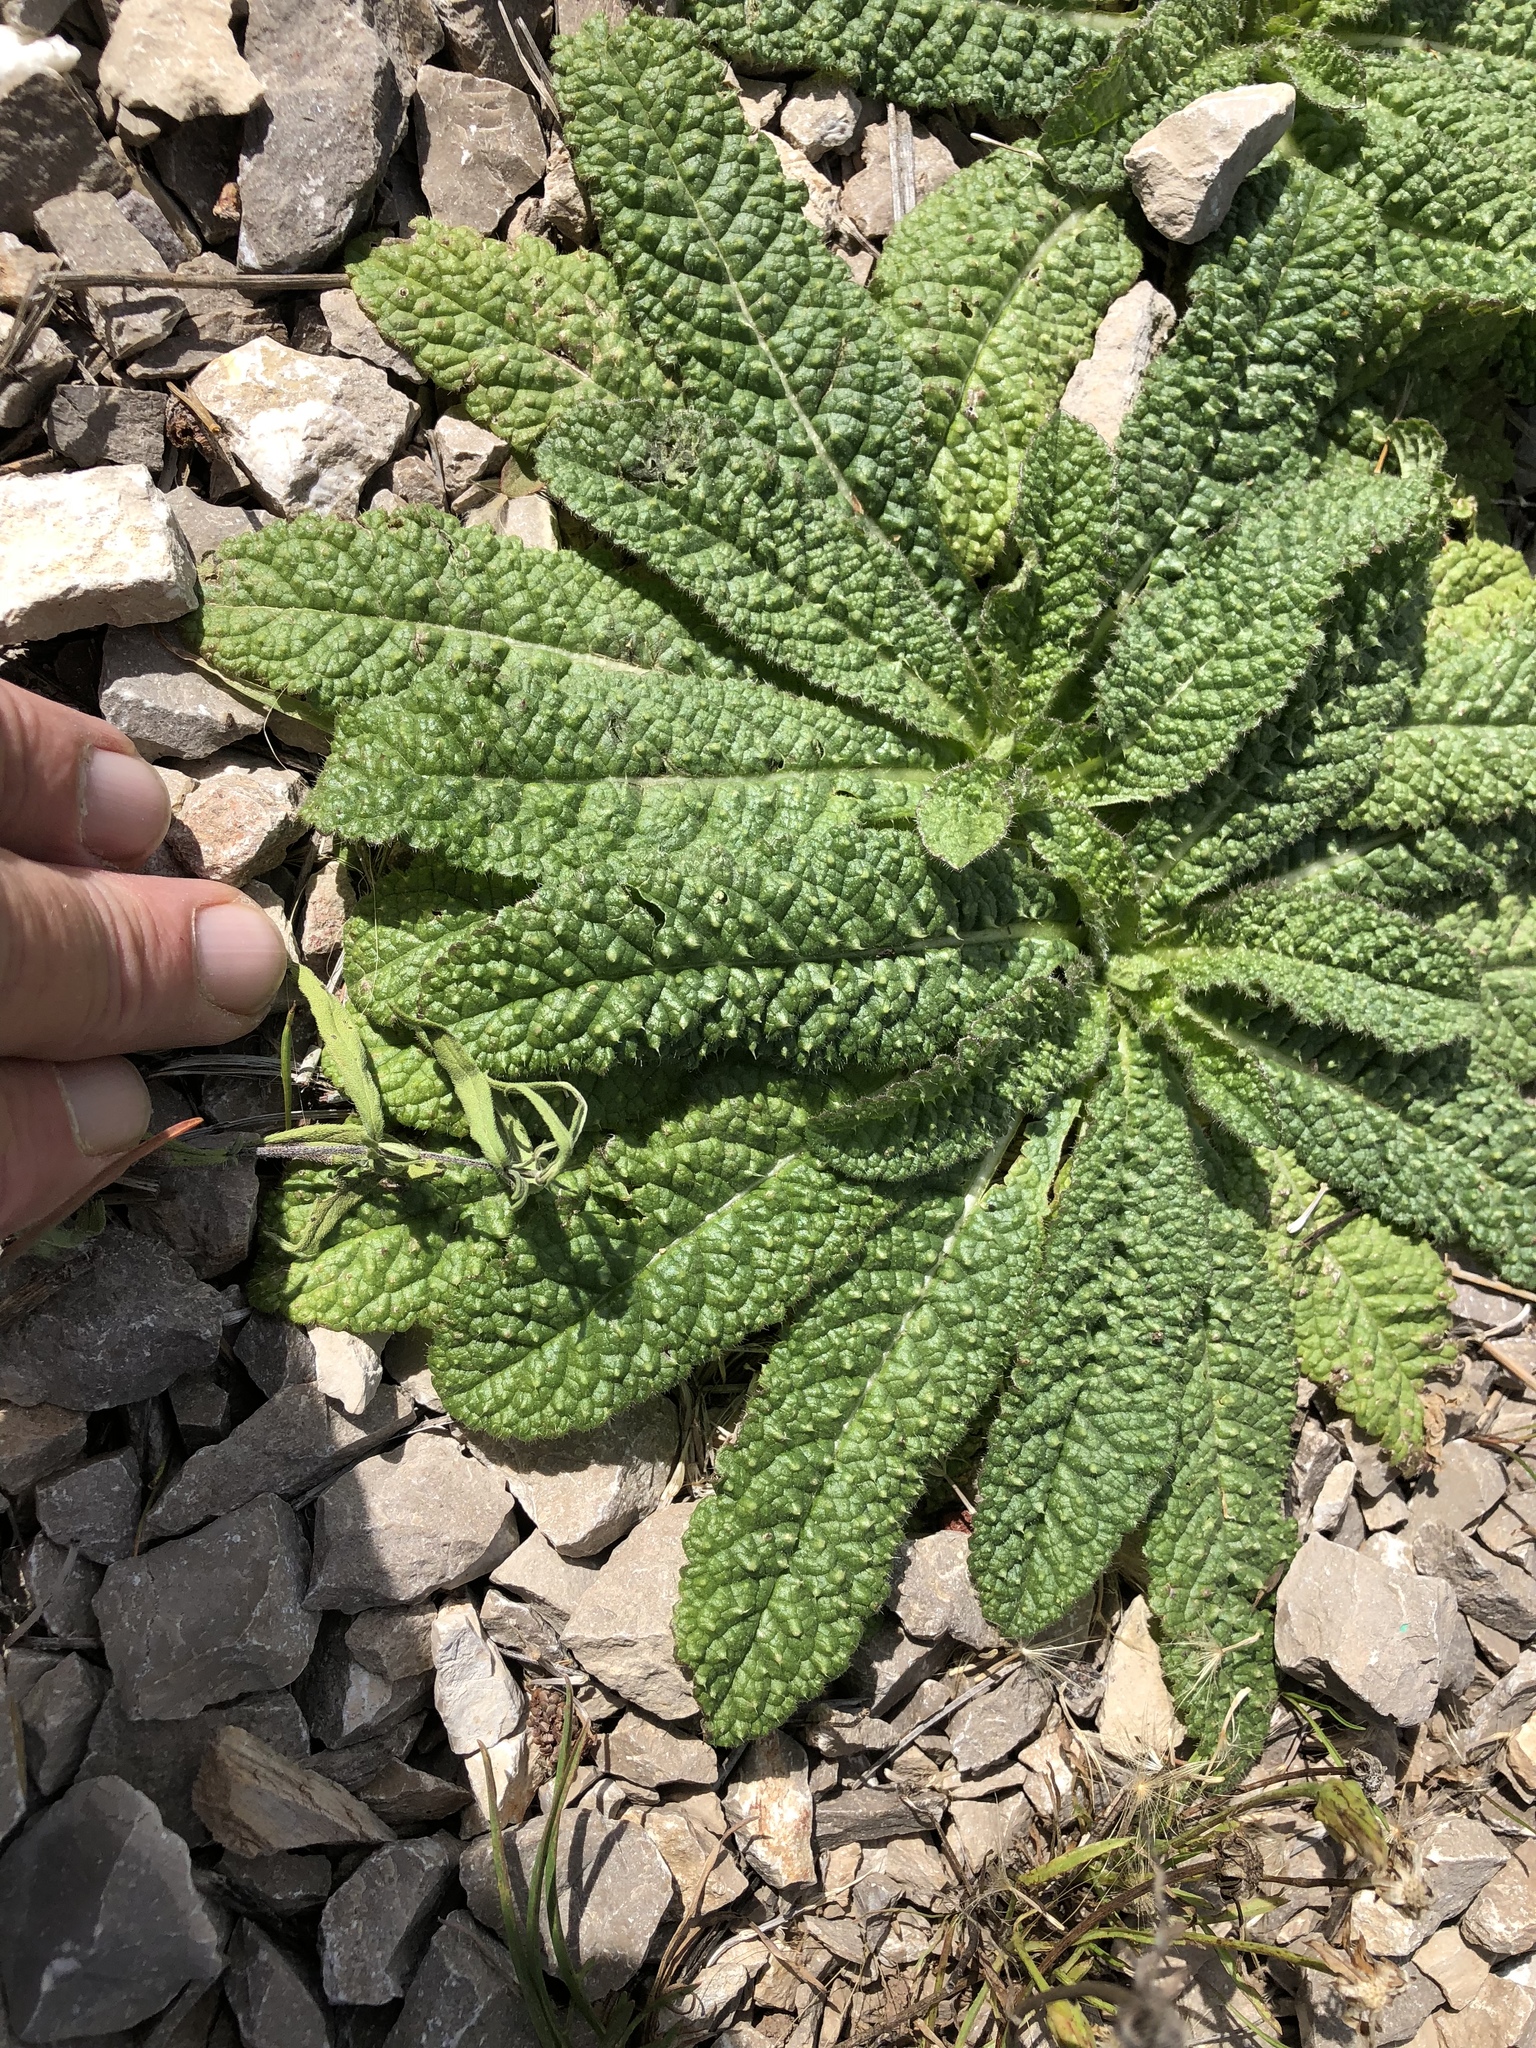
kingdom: Plantae
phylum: Tracheophyta
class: Magnoliopsida
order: Dipsacales
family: Caprifoliaceae
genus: Dipsacus
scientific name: Dipsacus fullonum
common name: Teasel
